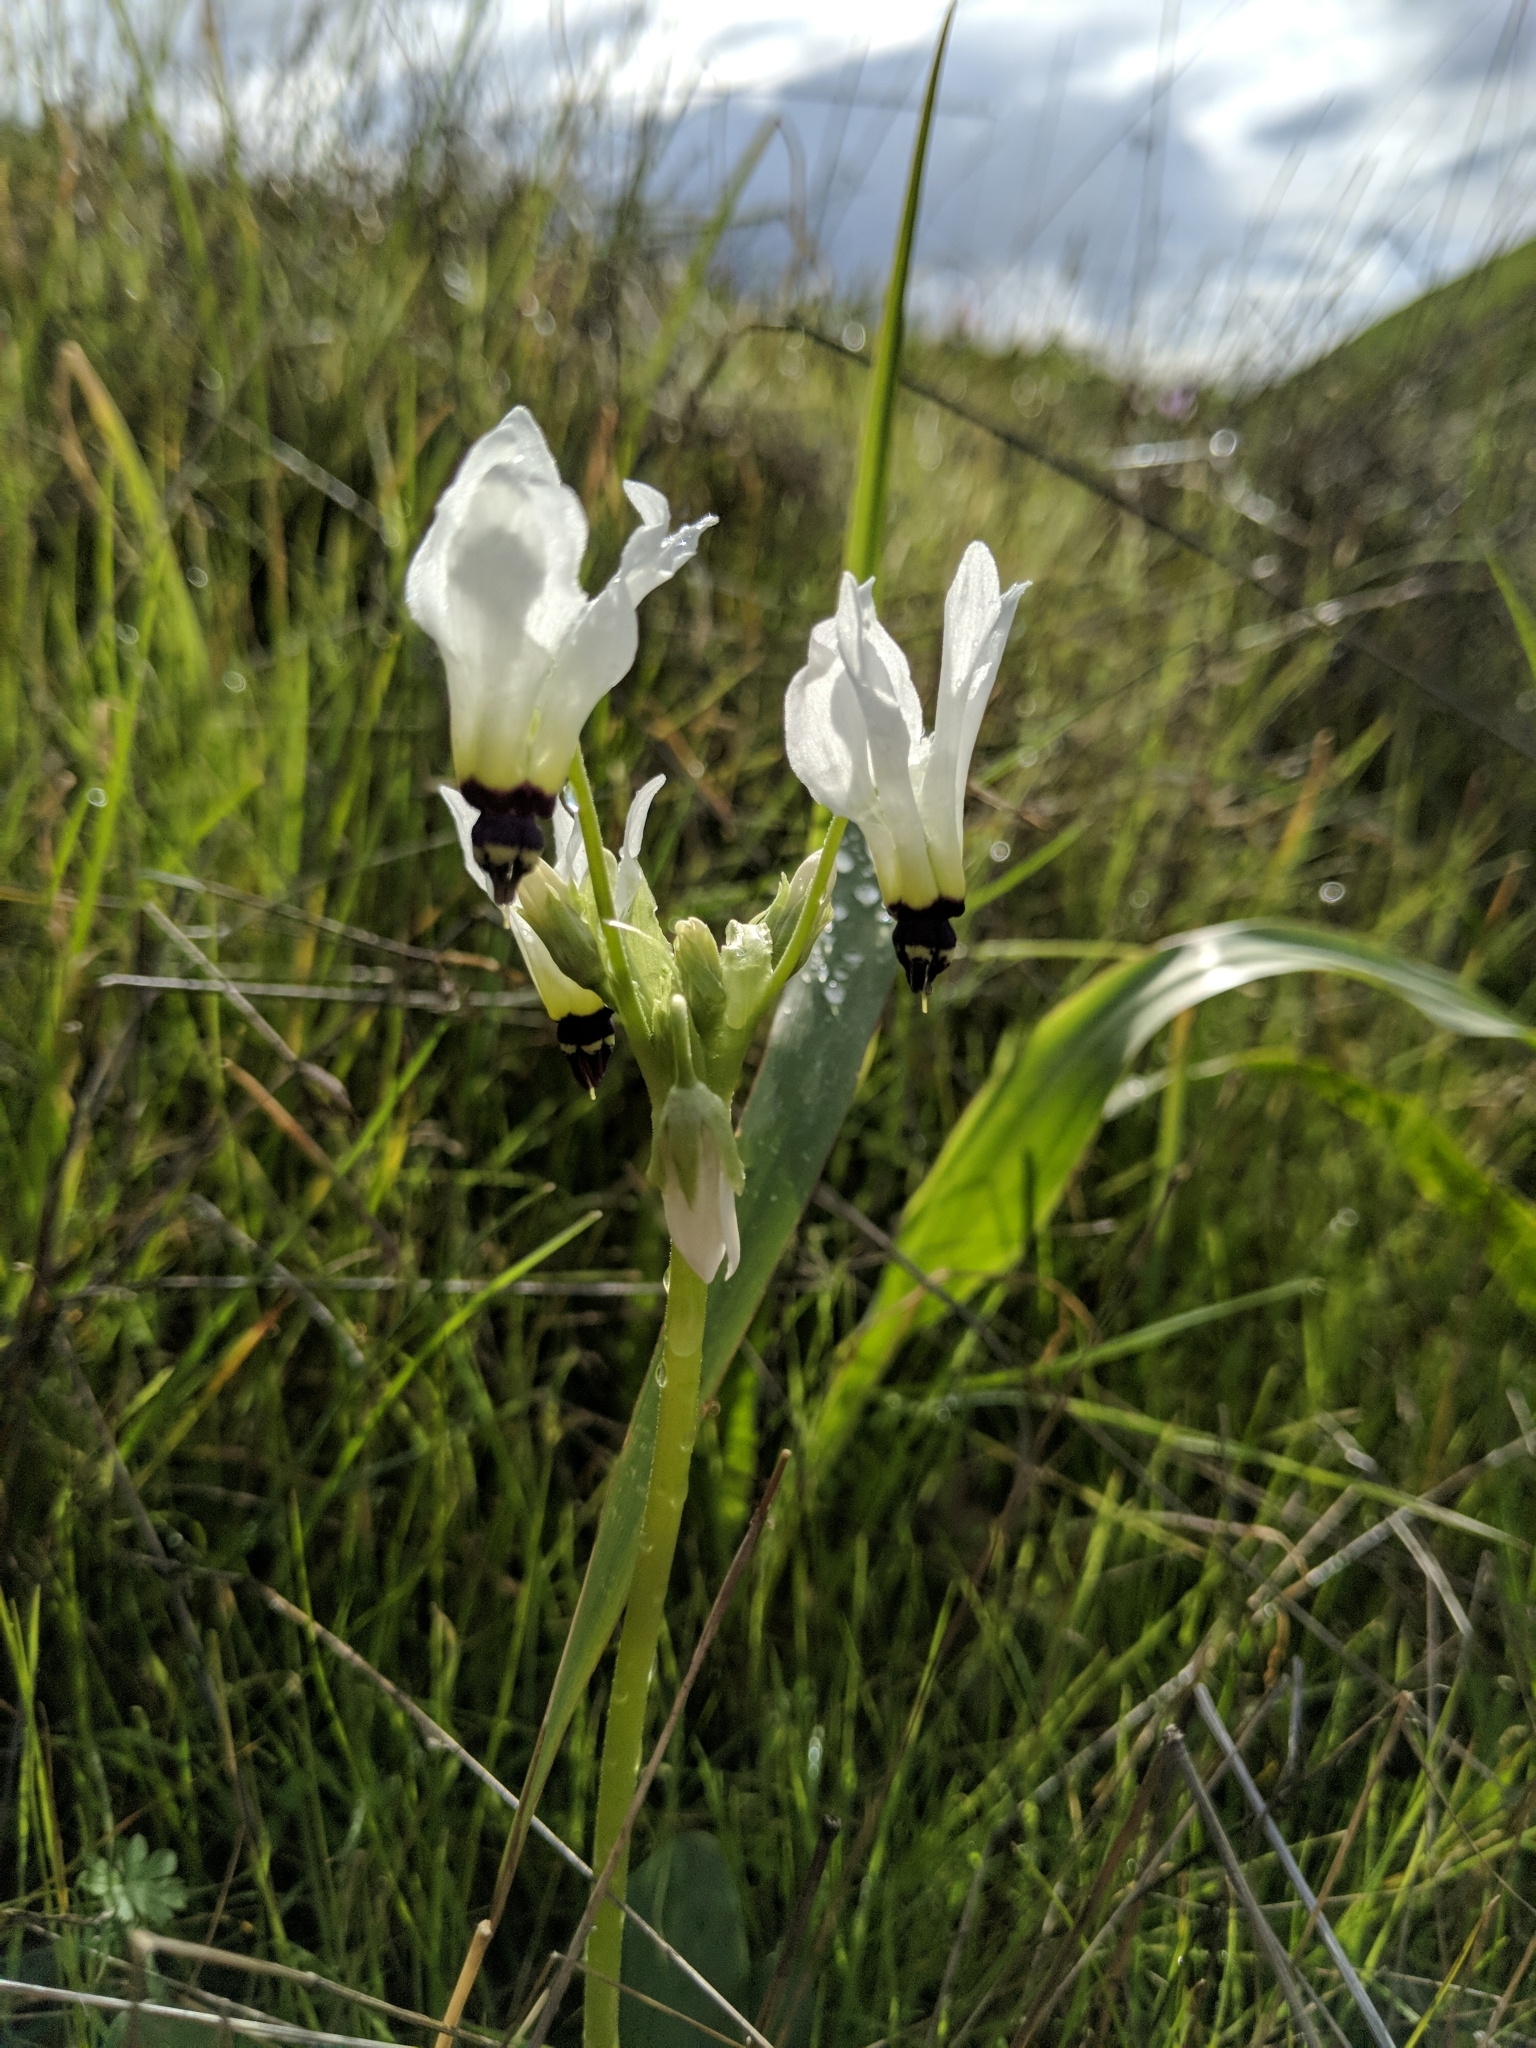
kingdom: Plantae
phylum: Tracheophyta
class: Magnoliopsida
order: Ericales
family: Primulaceae
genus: Dodecatheon
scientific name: Dodecatheon clevelandii
